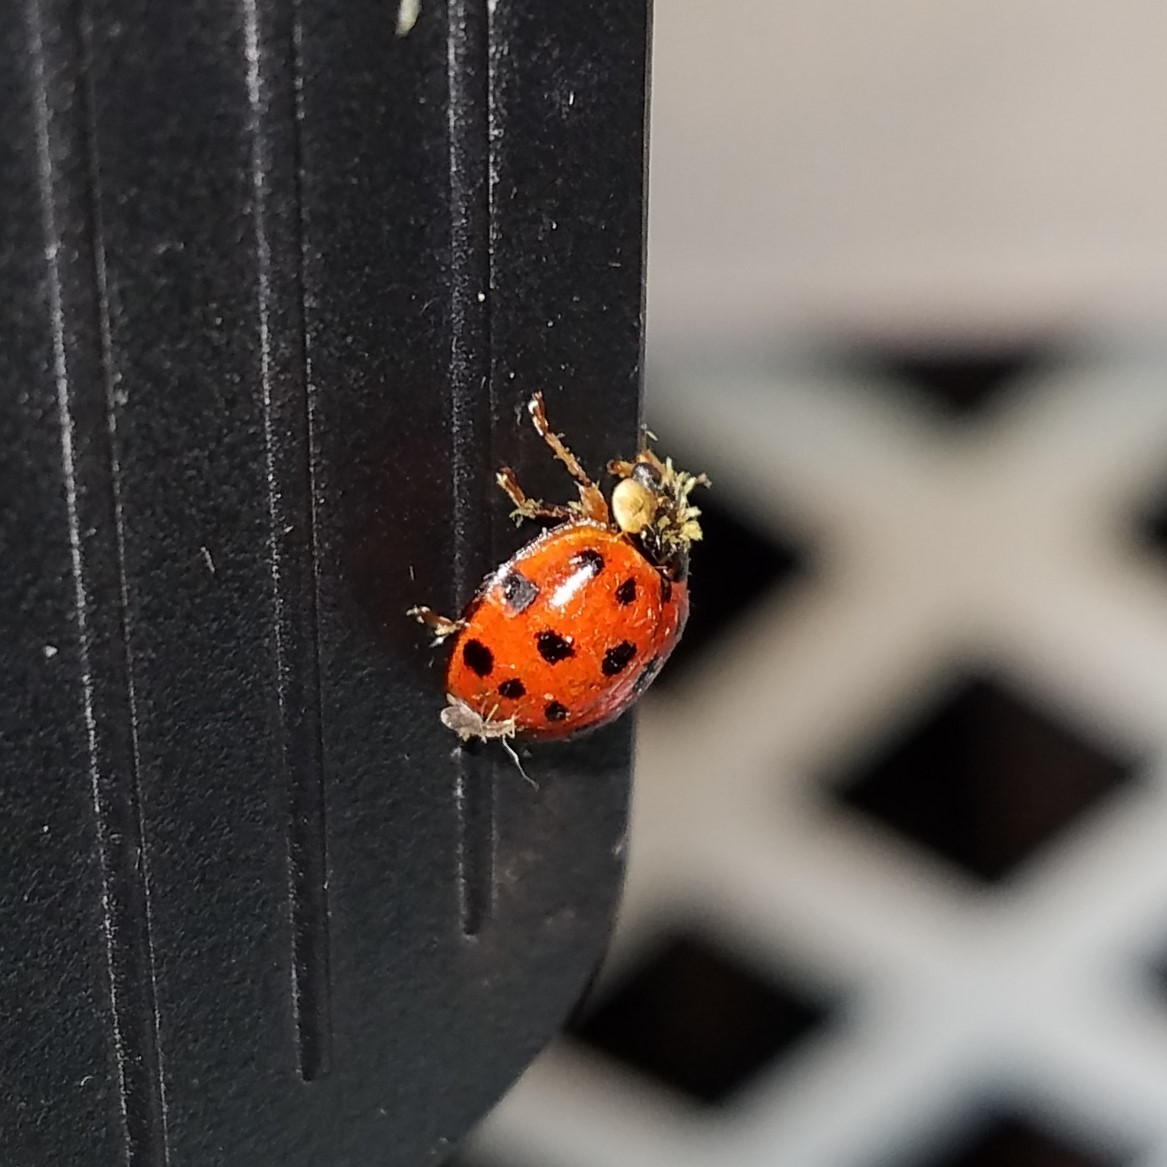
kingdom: Animalia
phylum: Arthropoda
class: Insecta
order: Coleoptera
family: Coccinellidae
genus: Harmonia
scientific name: Harmonia axyridis
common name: Harlequin ladybird
